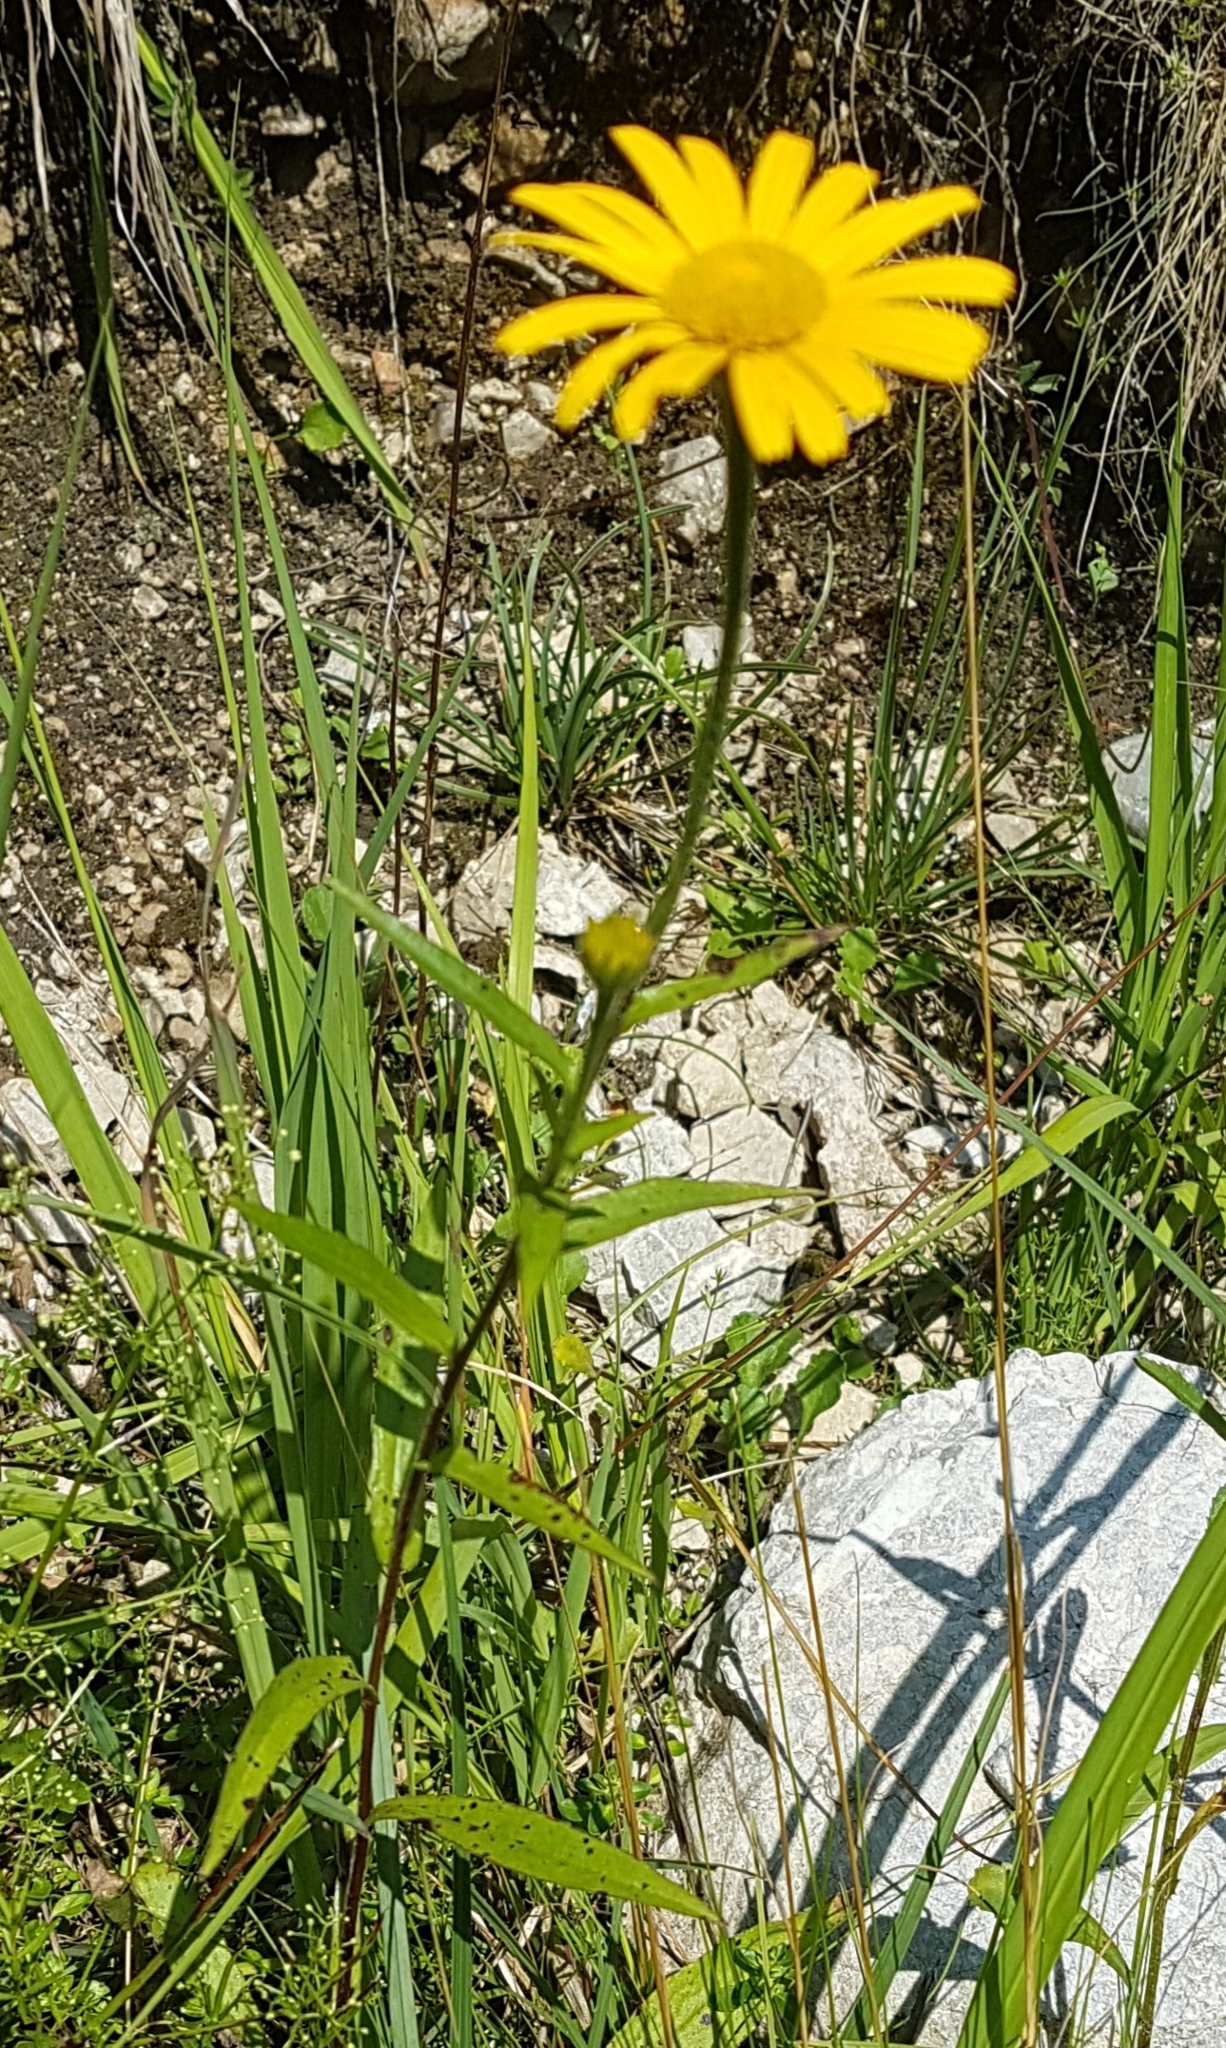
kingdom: Plantae
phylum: Tracheophyta
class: Magnoliopsida
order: Asterales
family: Asteraceae
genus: Buphthalmum
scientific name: Buphthalmum salicifolium
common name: Willow-leaved yellow-oxeye
